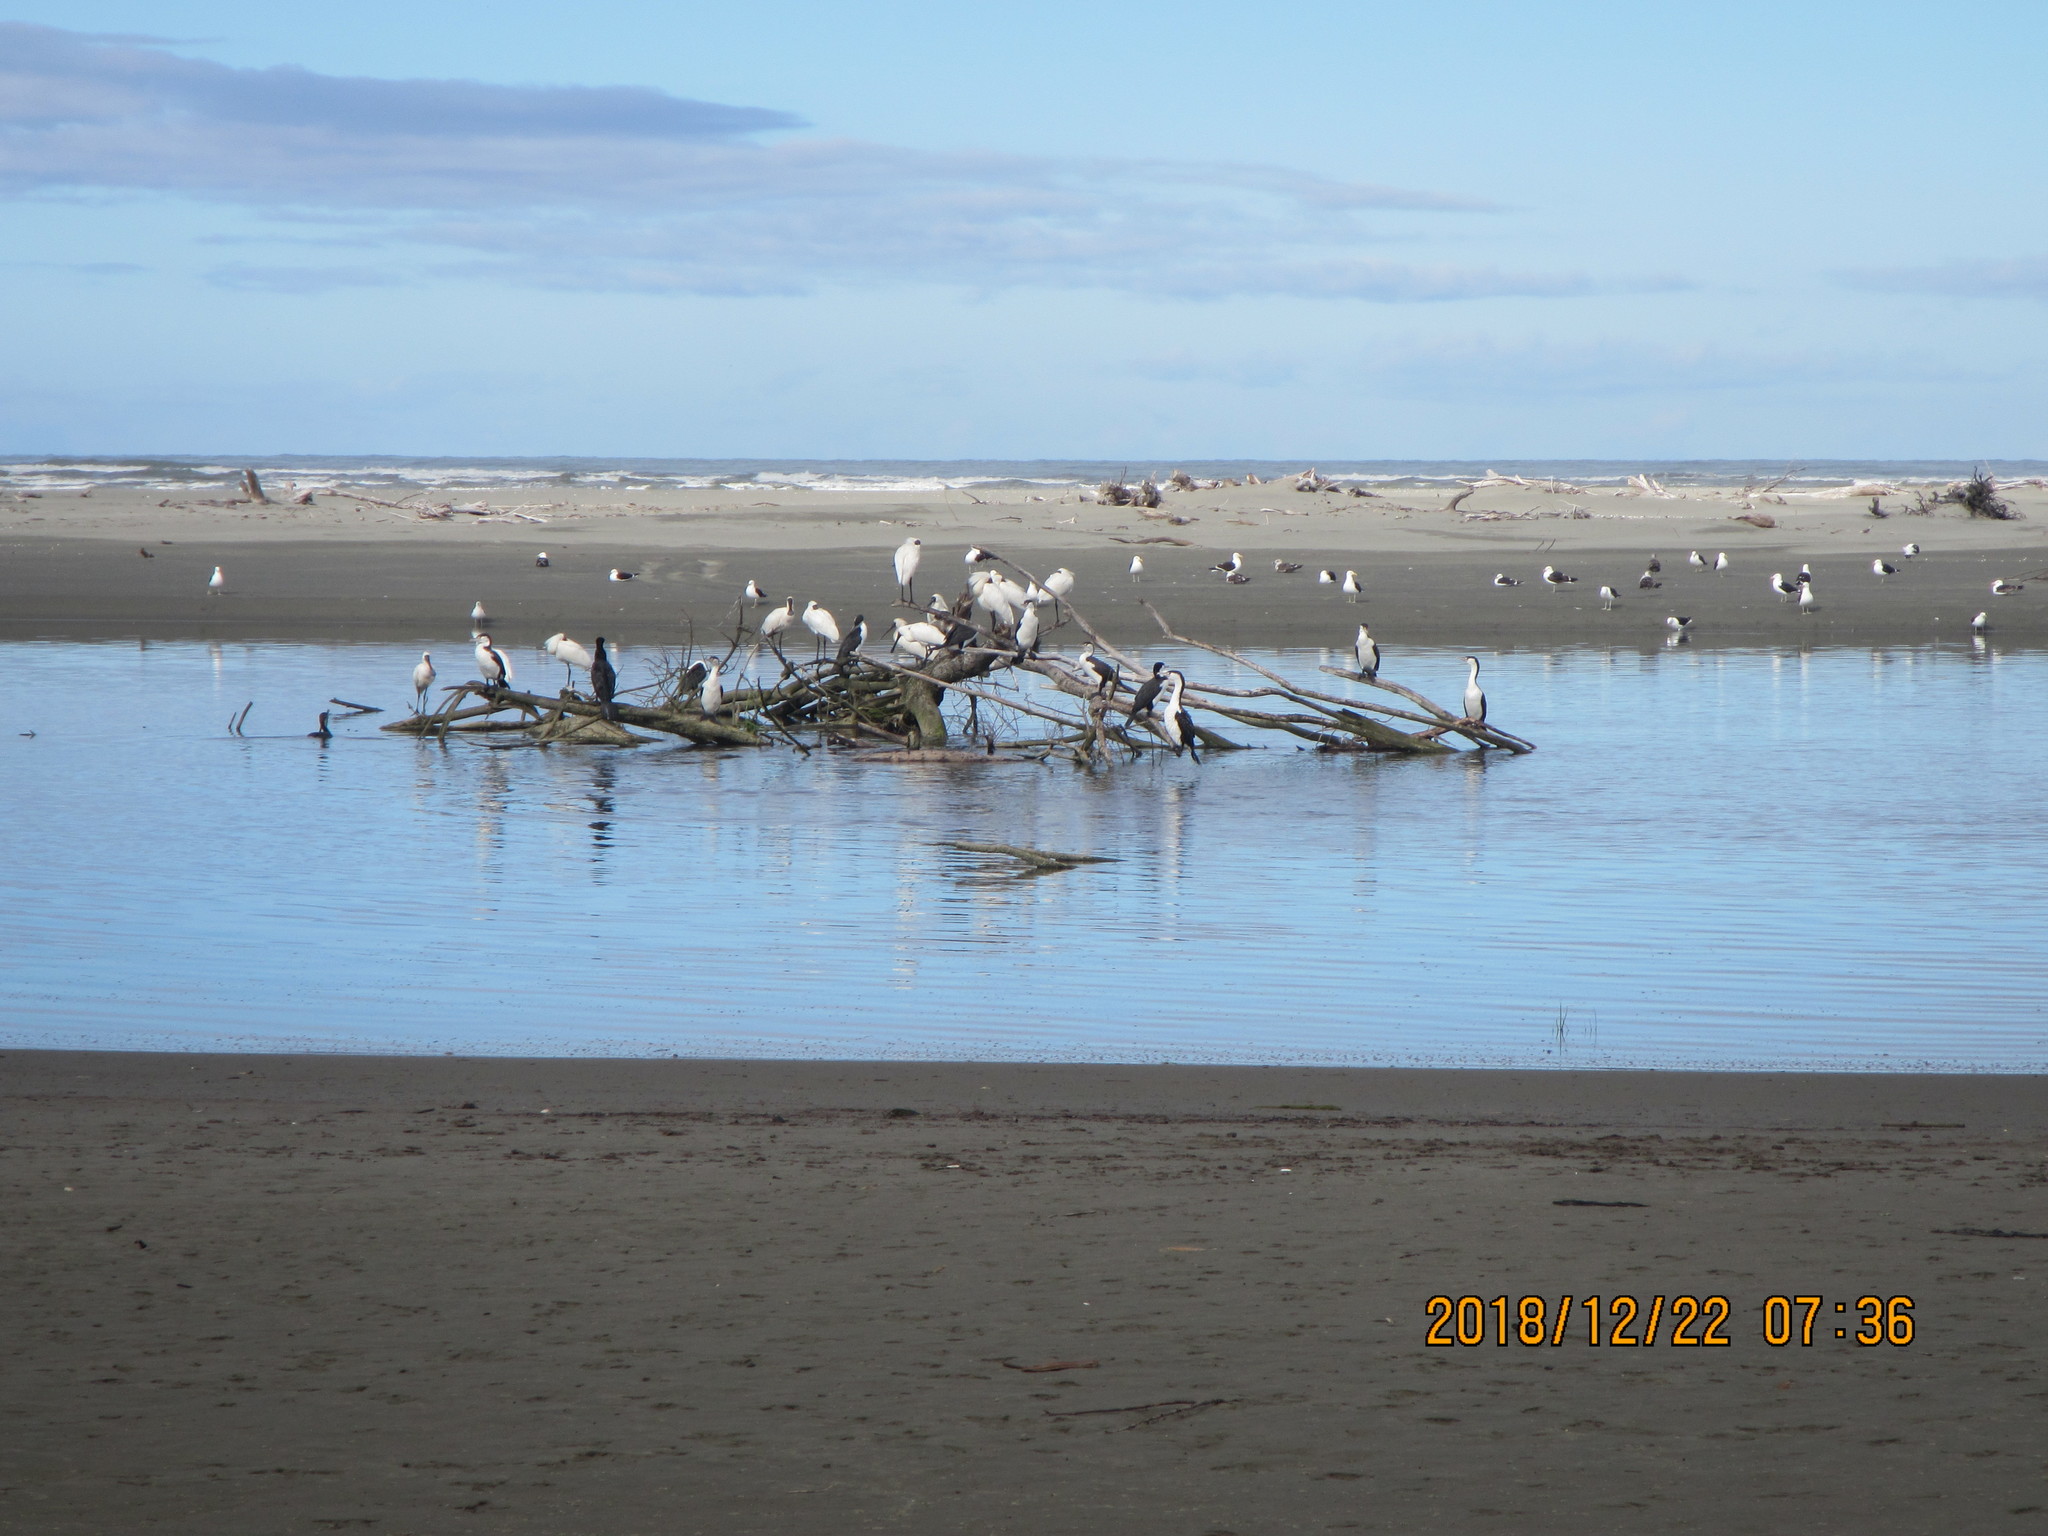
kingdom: Animalia
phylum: Chordata
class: Aves
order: Pelecaniformes
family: Threskiornithidae
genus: Platalea
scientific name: Platalea regia
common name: Royal spoonbill
